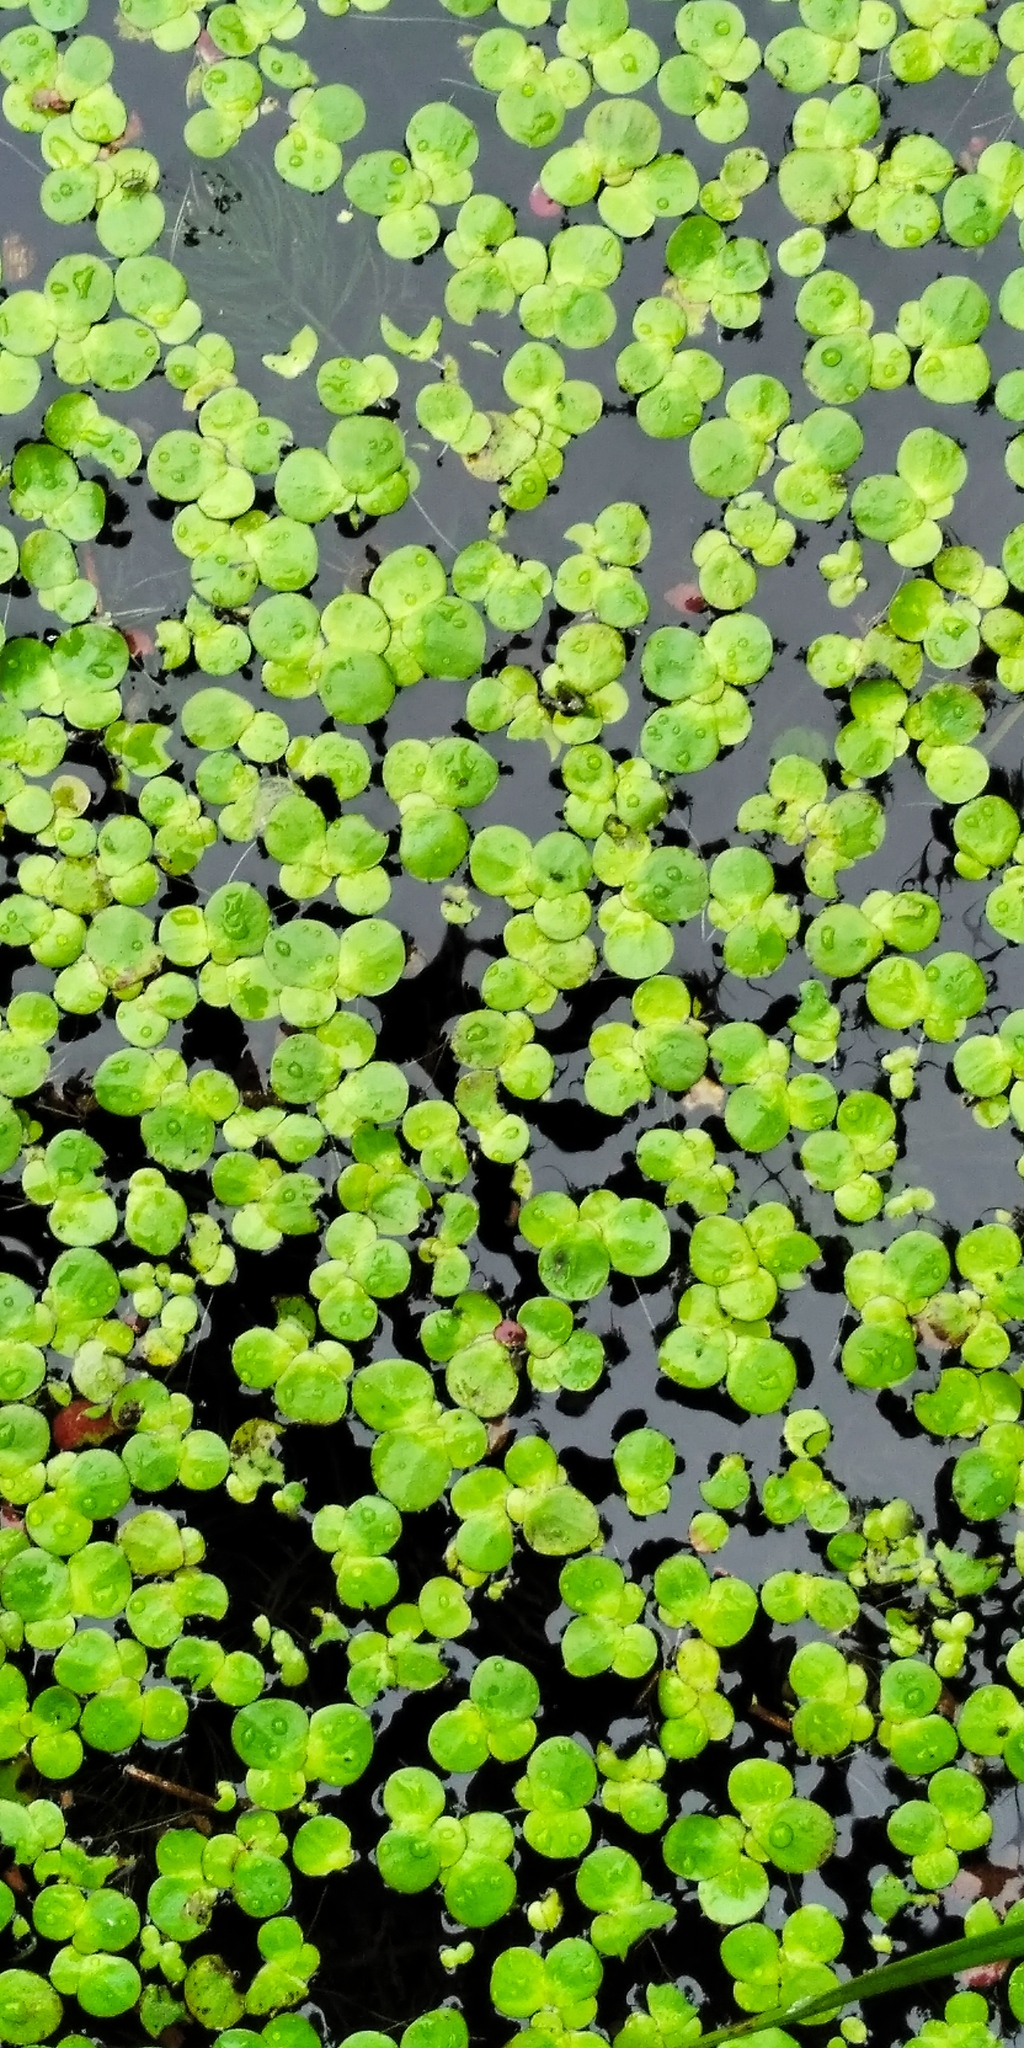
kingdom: Plantae
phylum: Tracheophyta
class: Liliopsida
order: Alismatales
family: Araceae
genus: Lemna
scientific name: Lemna minor
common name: Common duckweed
